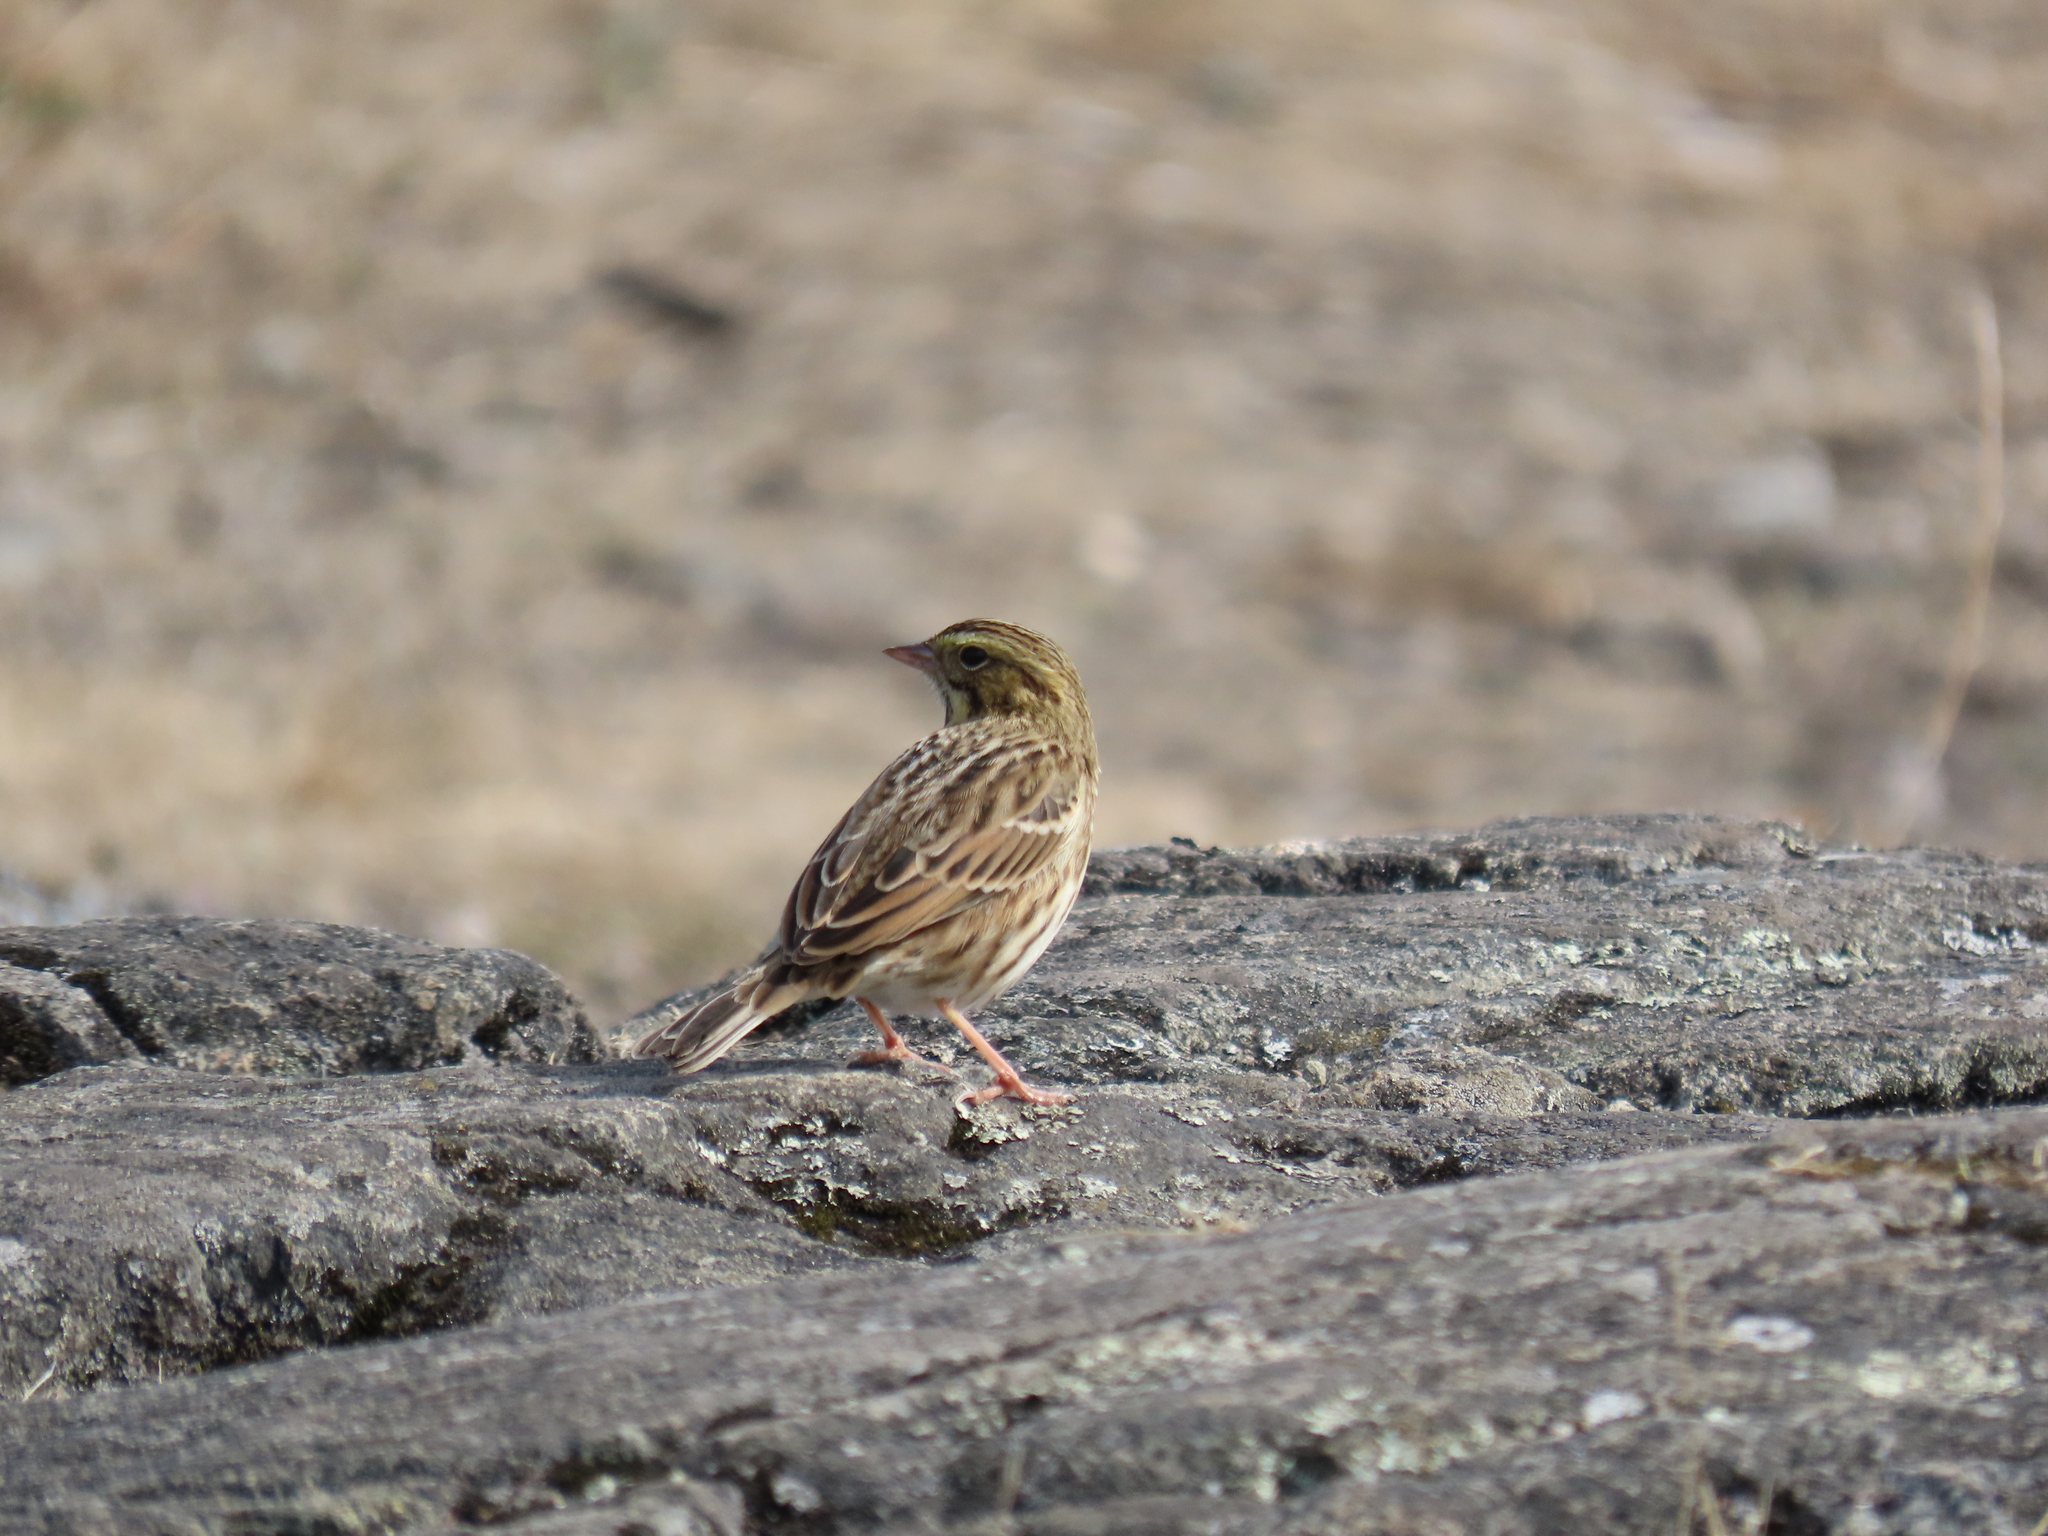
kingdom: Animalia
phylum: Chordata
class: Aves
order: Passeriformes
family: Passerellidae
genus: Passerculus
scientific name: Passerculus sandwichensis
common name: Savannah sparrow
